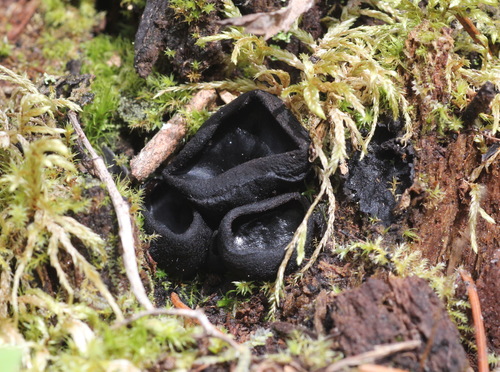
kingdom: Fungi
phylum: Ascomycota
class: Pezizomycetes
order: Pezizales
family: Sarcosomataceae
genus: Pseudoplectania
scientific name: Pseudoplectania nigrella
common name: Ebony cup
